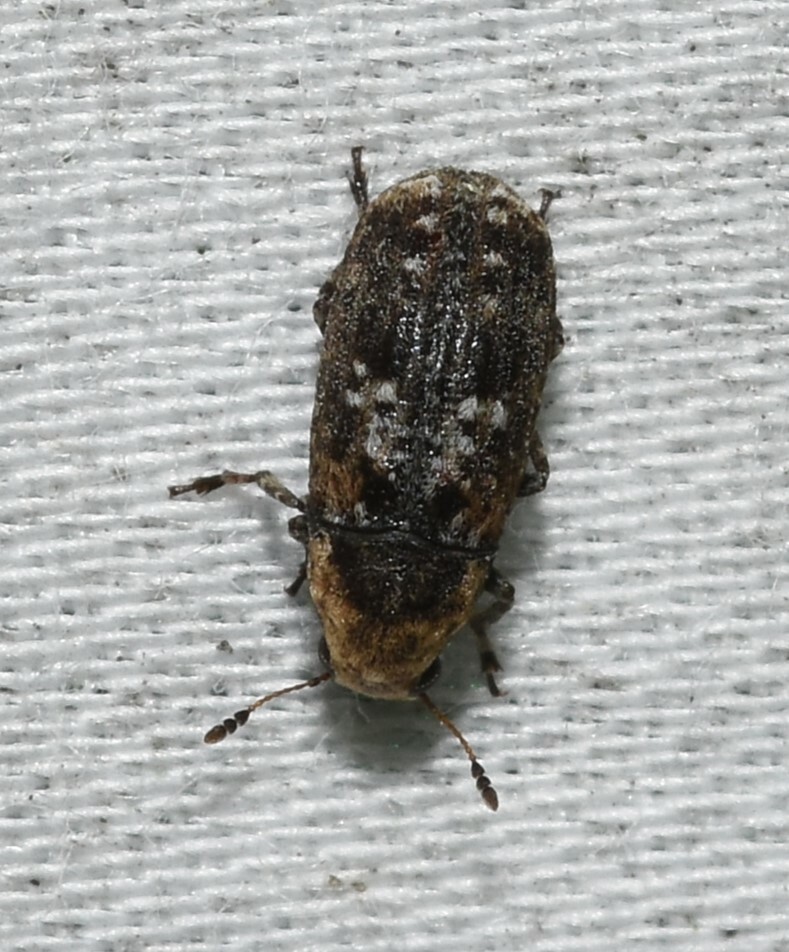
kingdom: Animalia
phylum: Arthropoda
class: Insecta
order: Coleoptera
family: Anthribidae
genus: Euparius
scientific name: Euparius paganus
